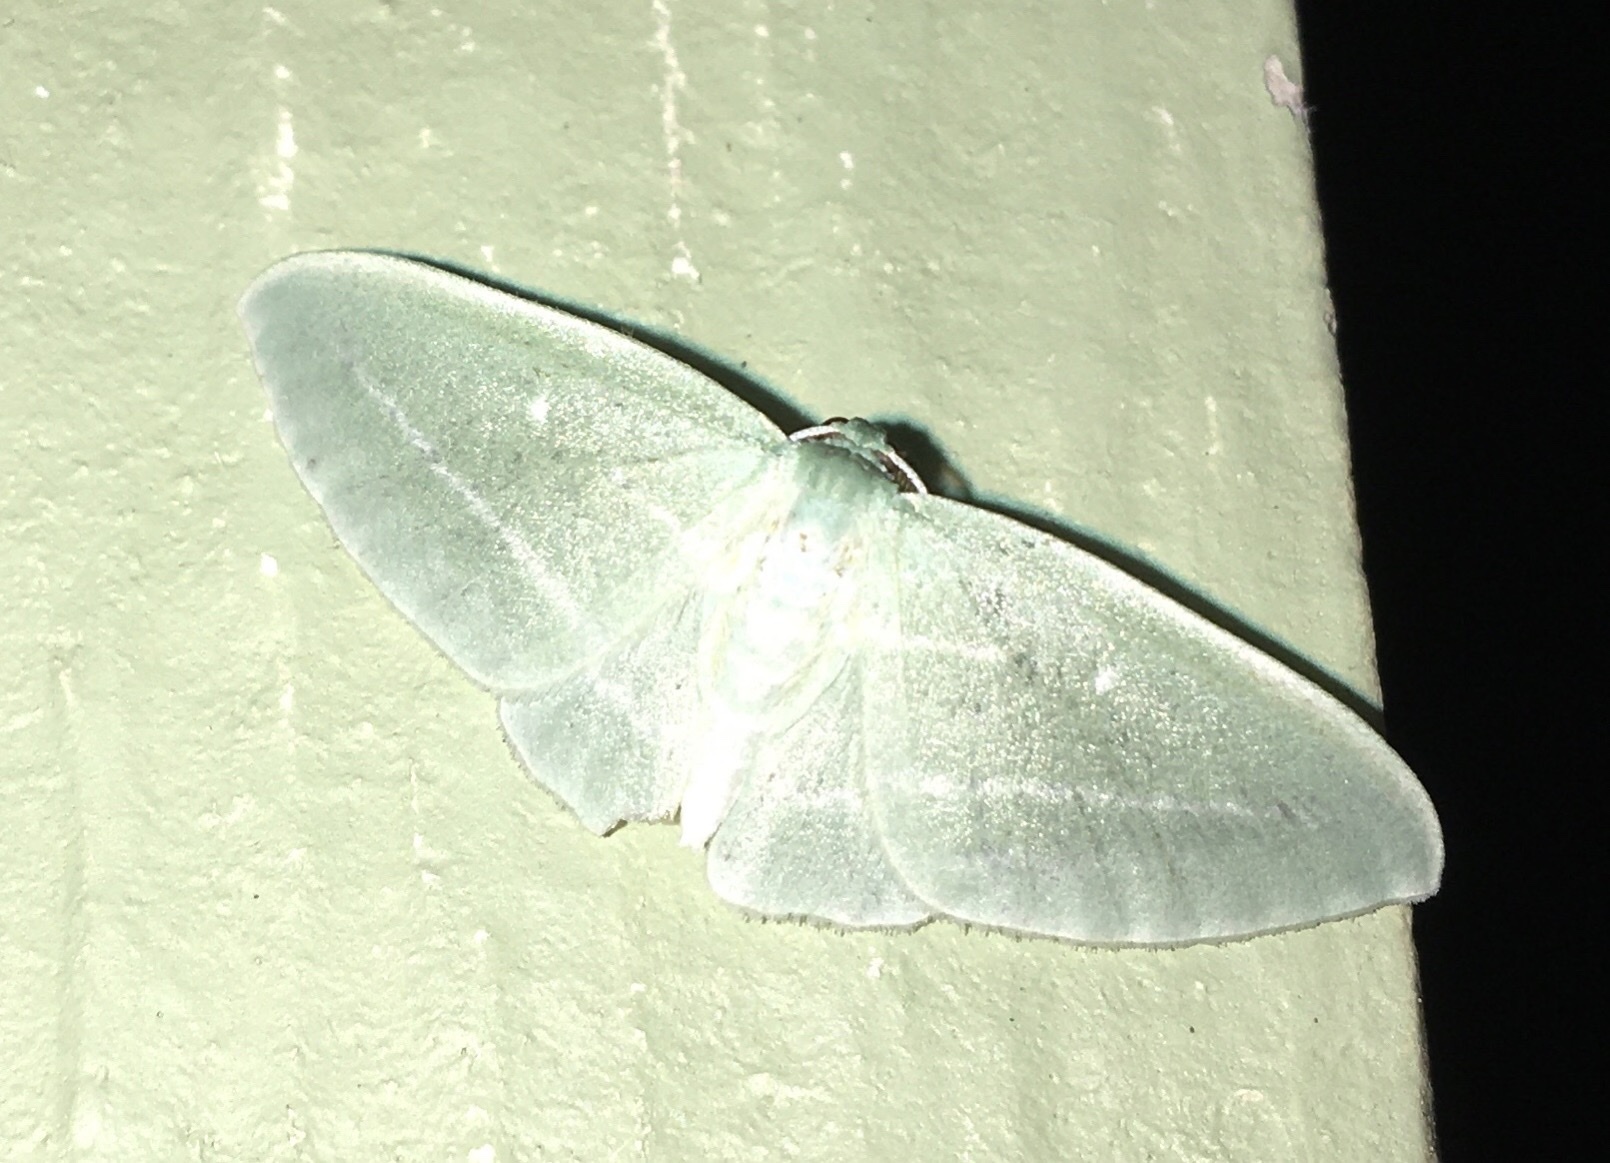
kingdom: Animalia
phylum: Arthropoda
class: Insecta
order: Lepidoptera
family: Geometridae
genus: Dyspteris
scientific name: Dyspteris abortivaria
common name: Bad-wing
